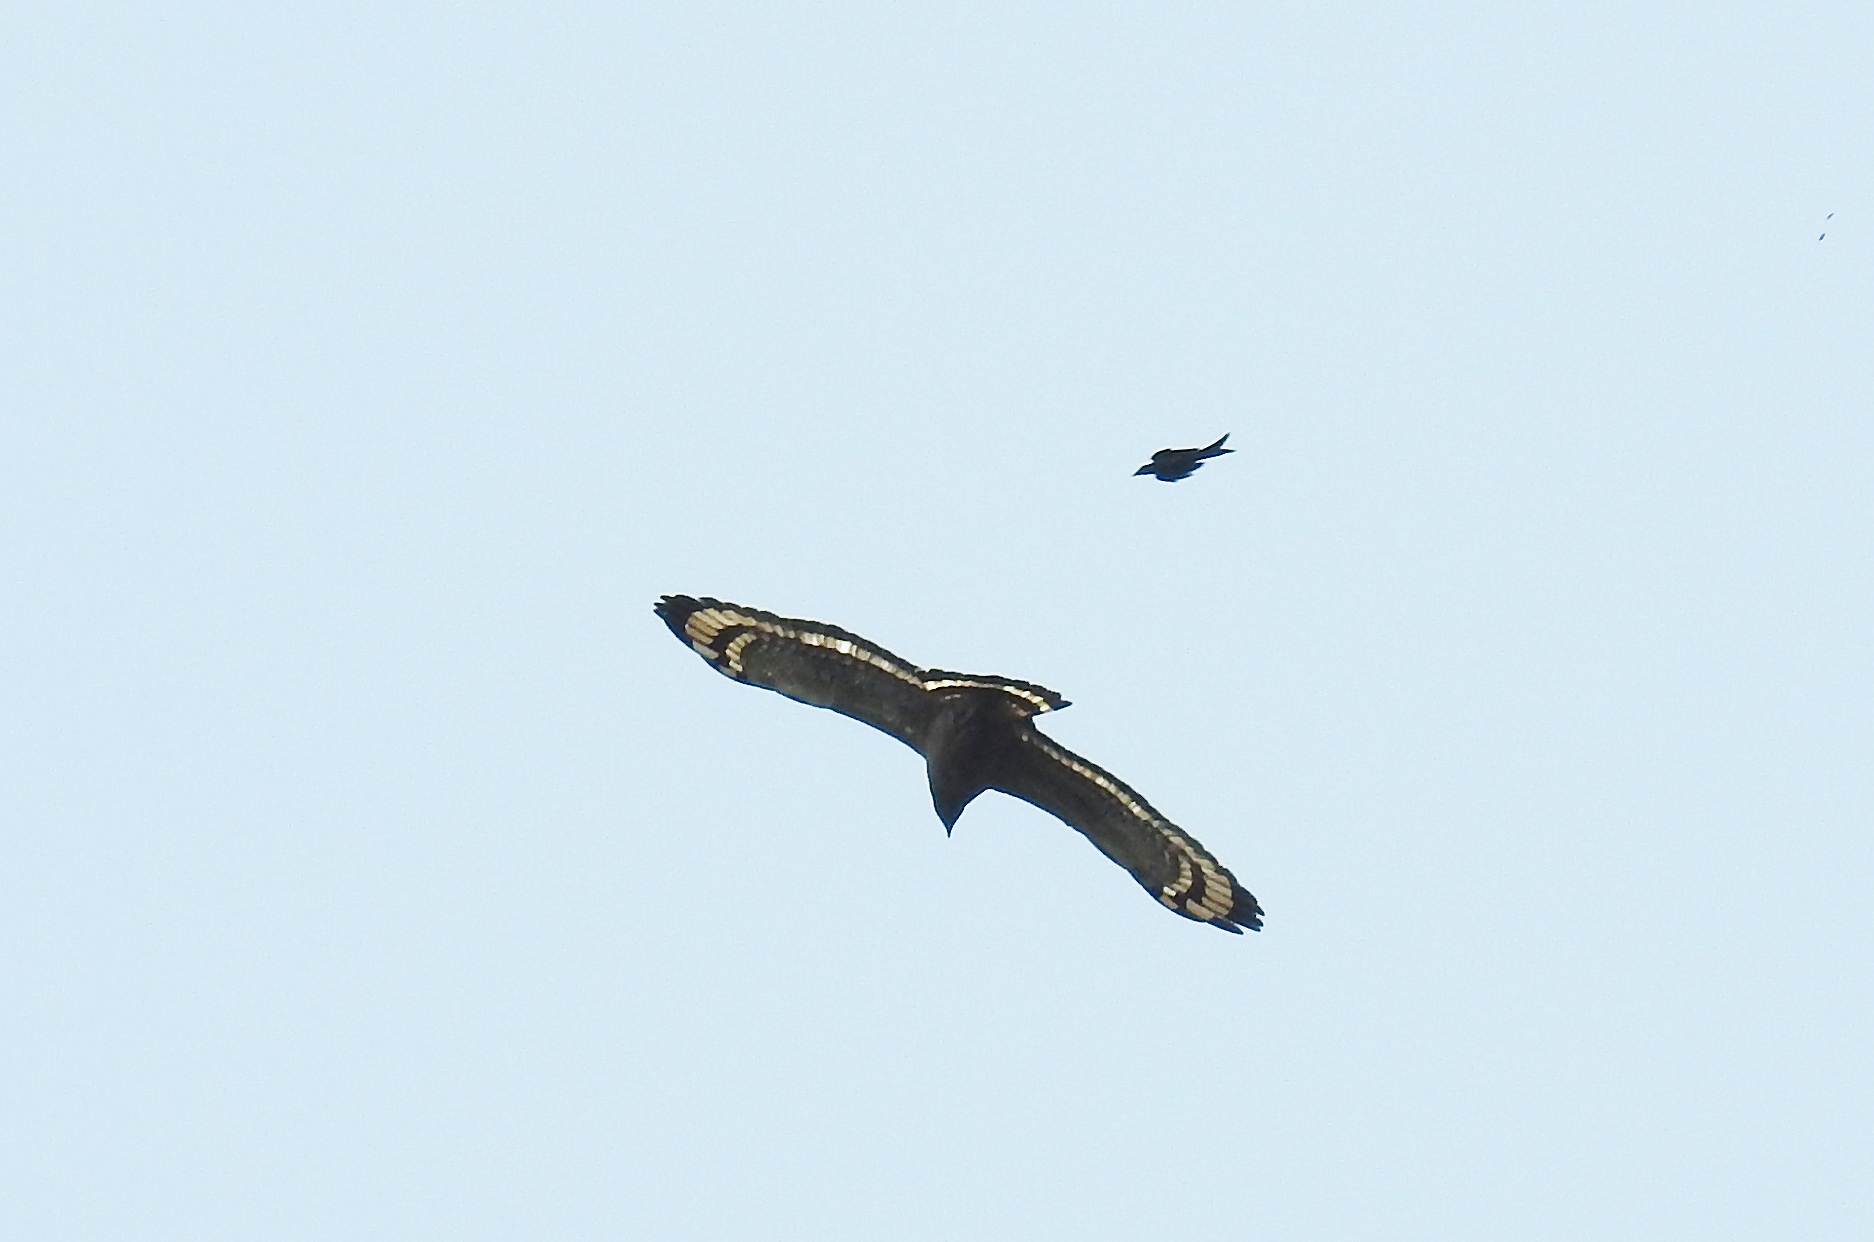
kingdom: Animalia
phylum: Chordata
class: Aves
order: Accipitriformes
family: Accipitridae
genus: Spilornis
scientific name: Spilornis cheela
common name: Crested serpent eagle
